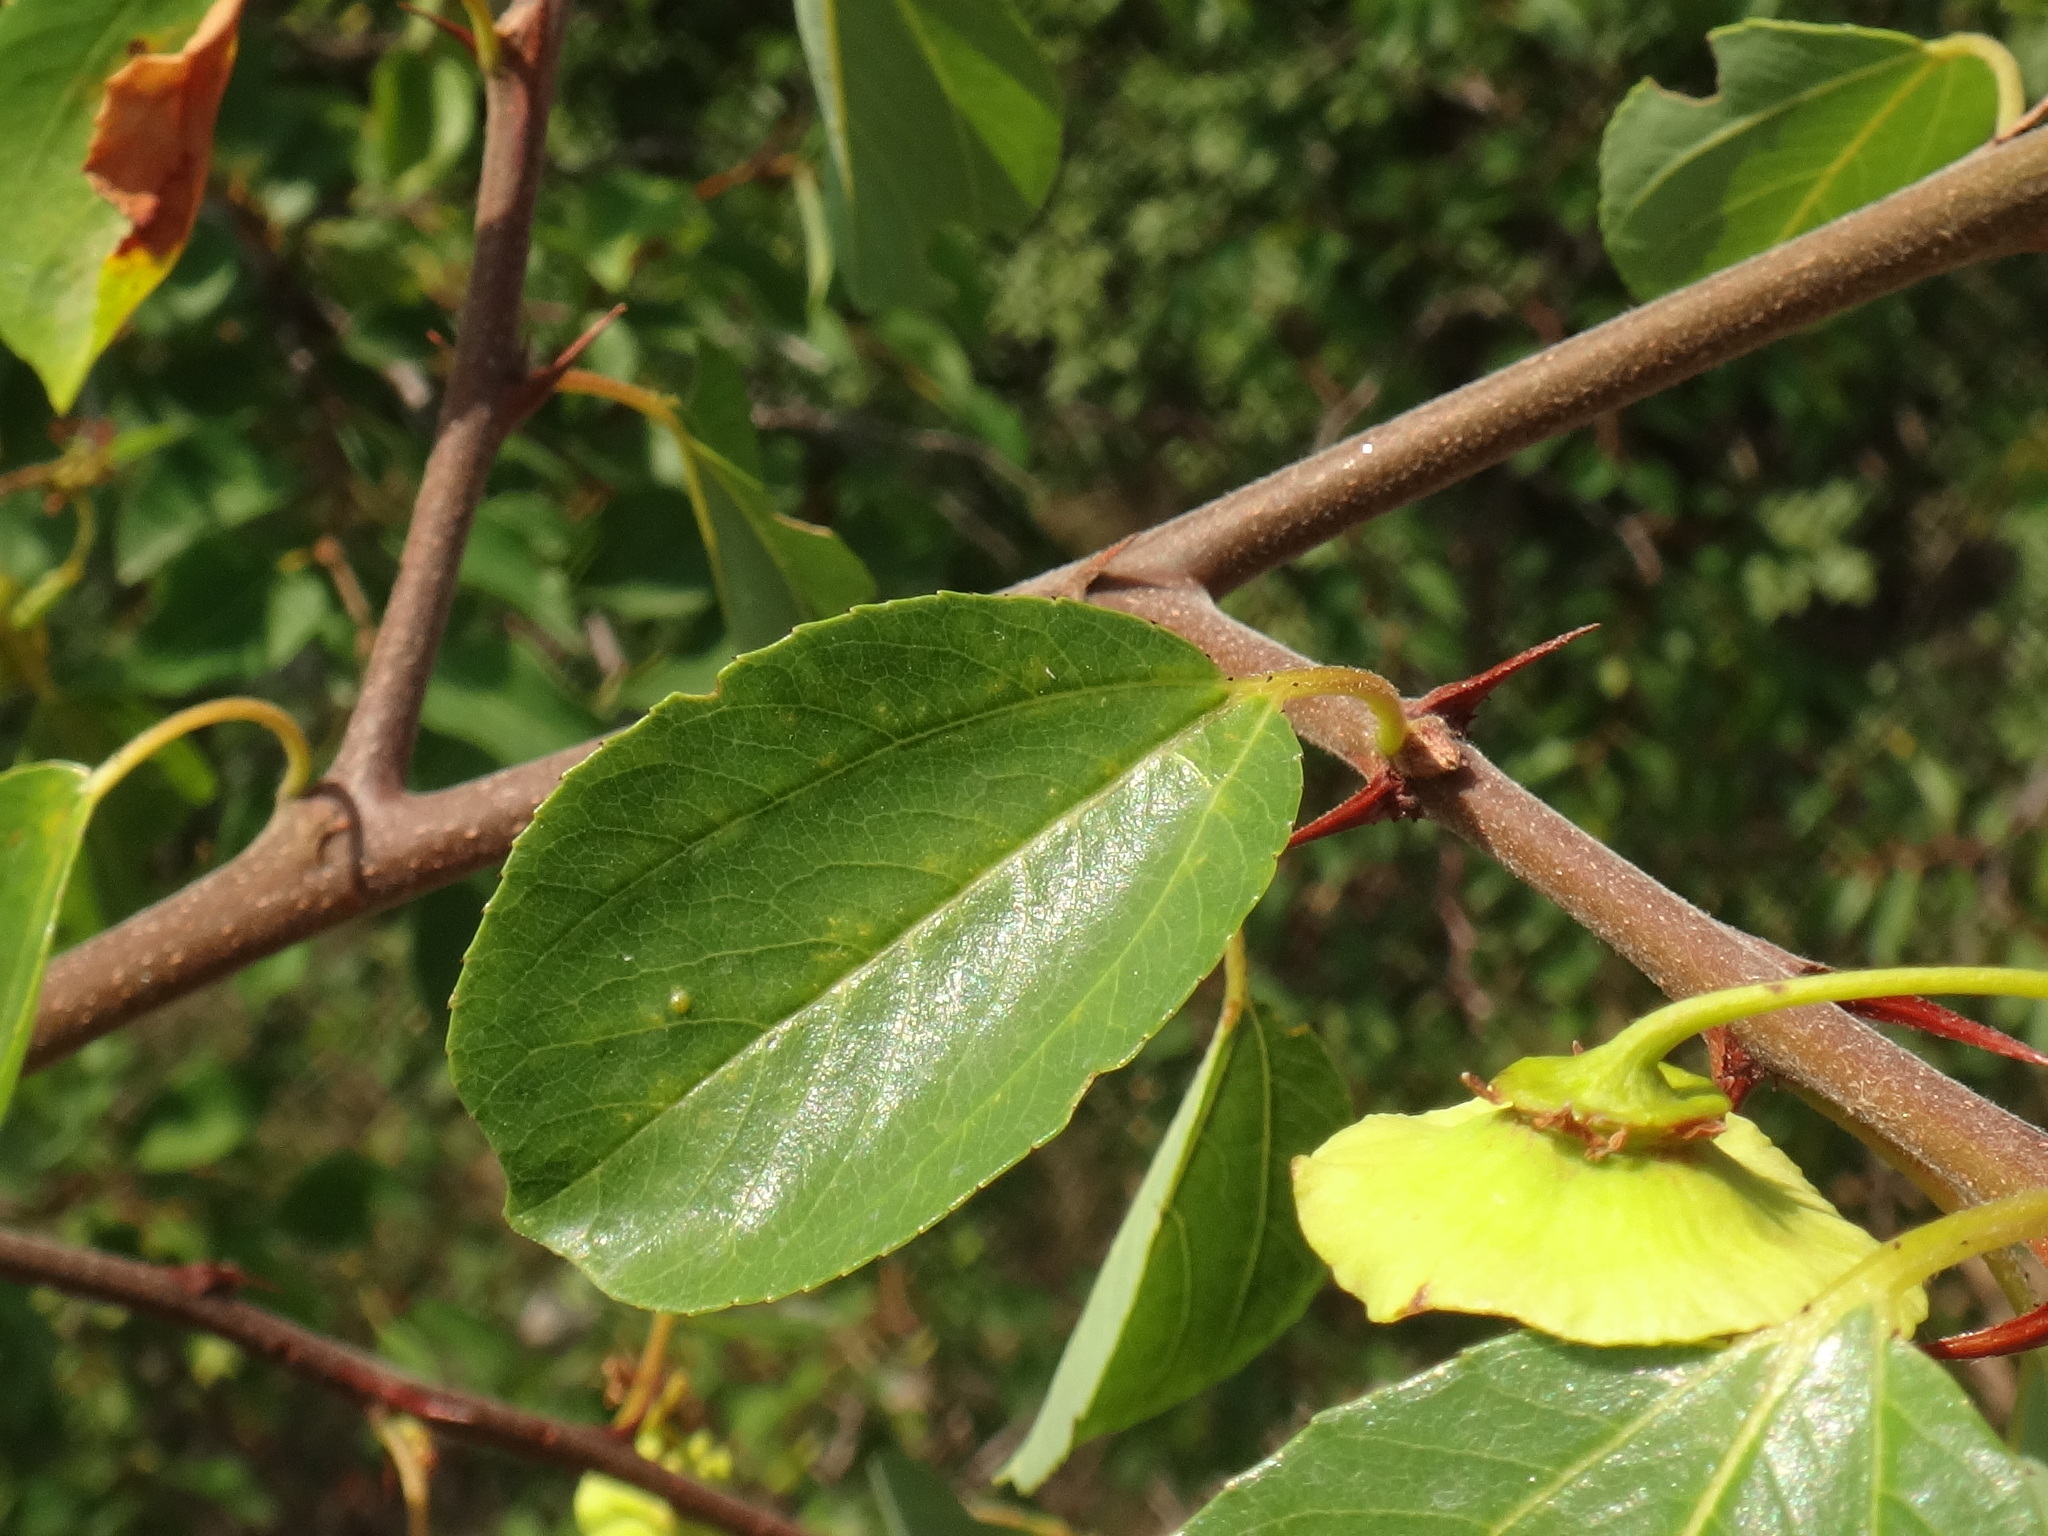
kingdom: Plantae
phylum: Tracheophyta
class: Magnoliopsida
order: Rosales
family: Rhamnaceae
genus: Paliurus
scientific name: Paliurus spina-christi
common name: Jeruselem thorn
